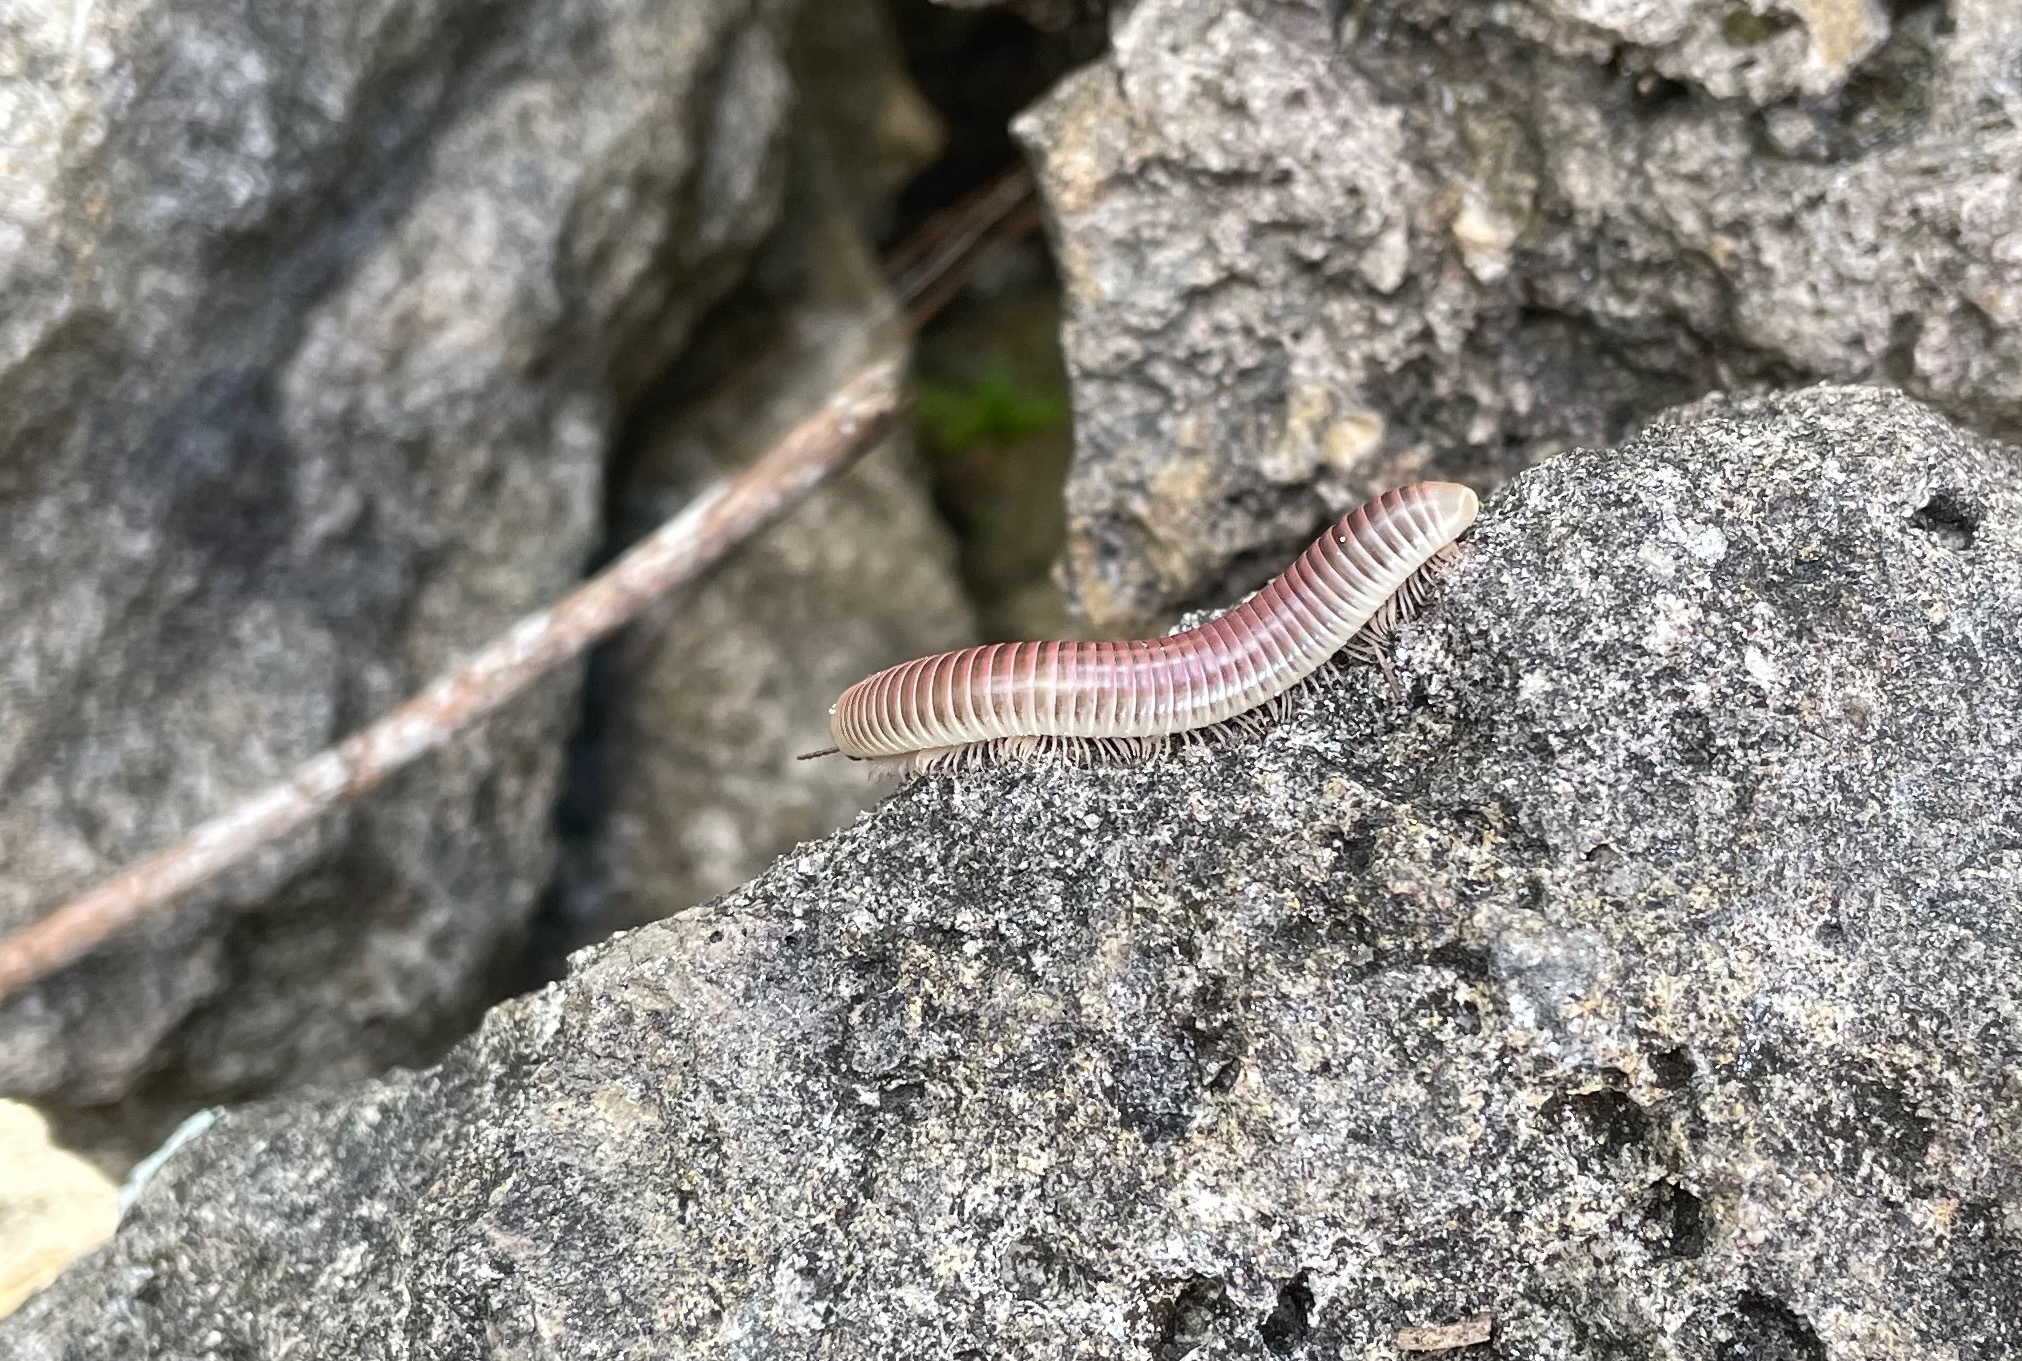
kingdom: Animalia
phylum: Arthropoda
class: Diplopoda
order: Spirobolida
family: Spirobolidae
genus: Chicobolus
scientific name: Chicobolus spinigerus
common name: Florida ivory millipede
